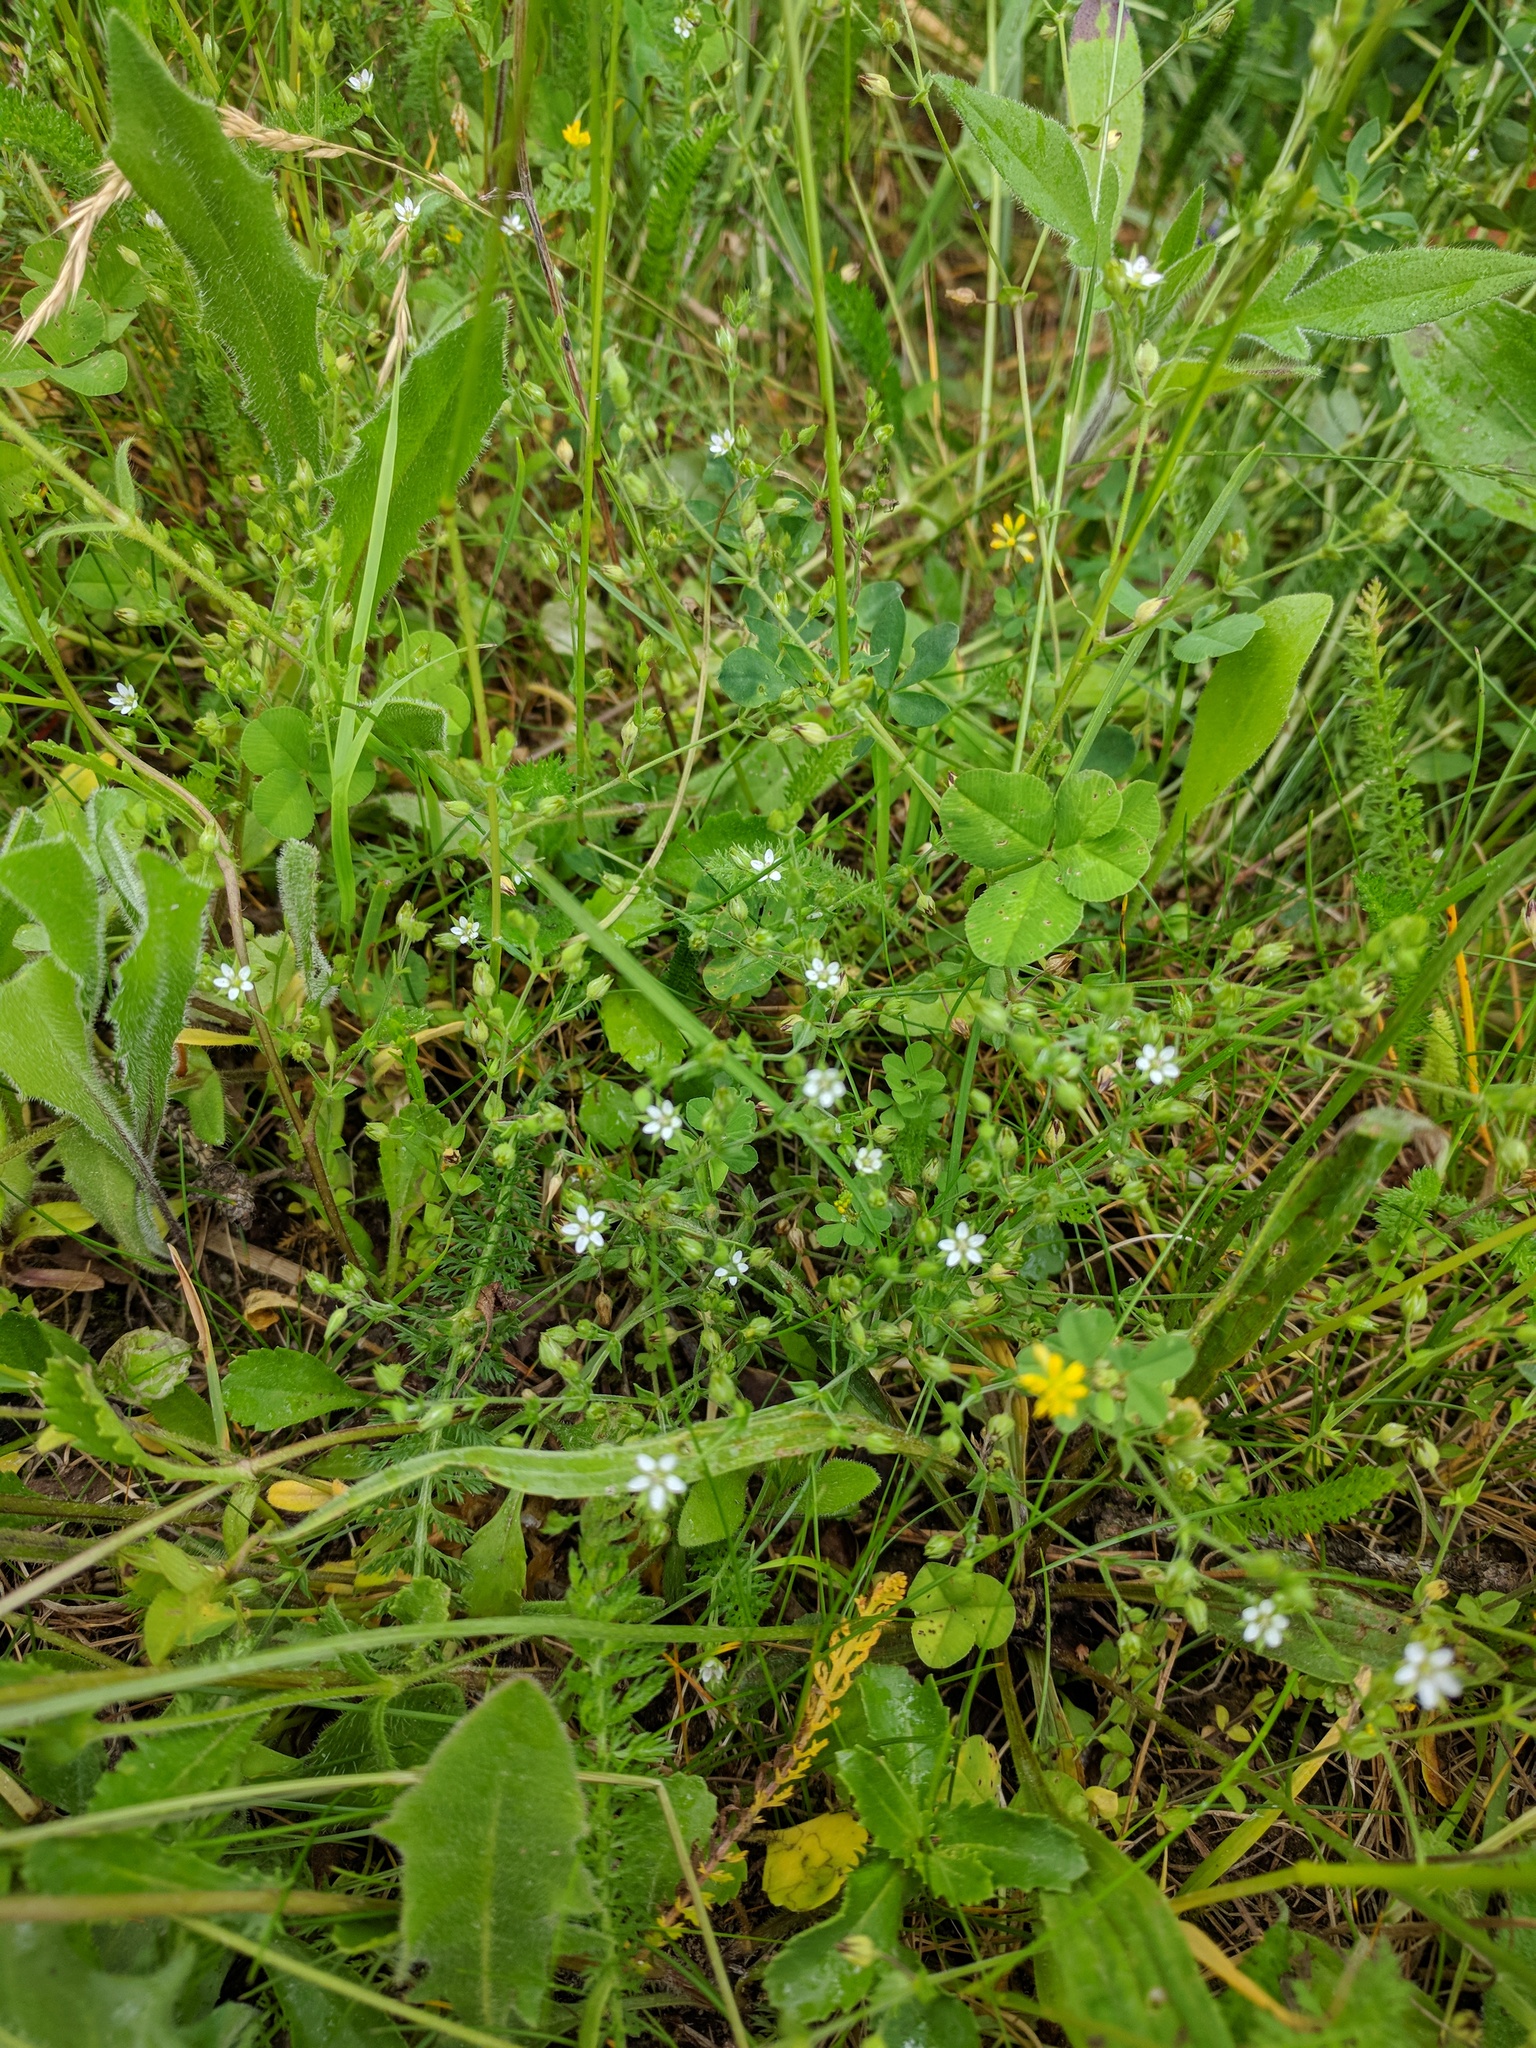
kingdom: Plantae
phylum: Tracheophyta
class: Magnoliopsida
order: Caryophyllales
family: Caryophyllaceae
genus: Arenaria
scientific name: Arenaria serpyllifolia
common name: Thyme-leaved sandwort
